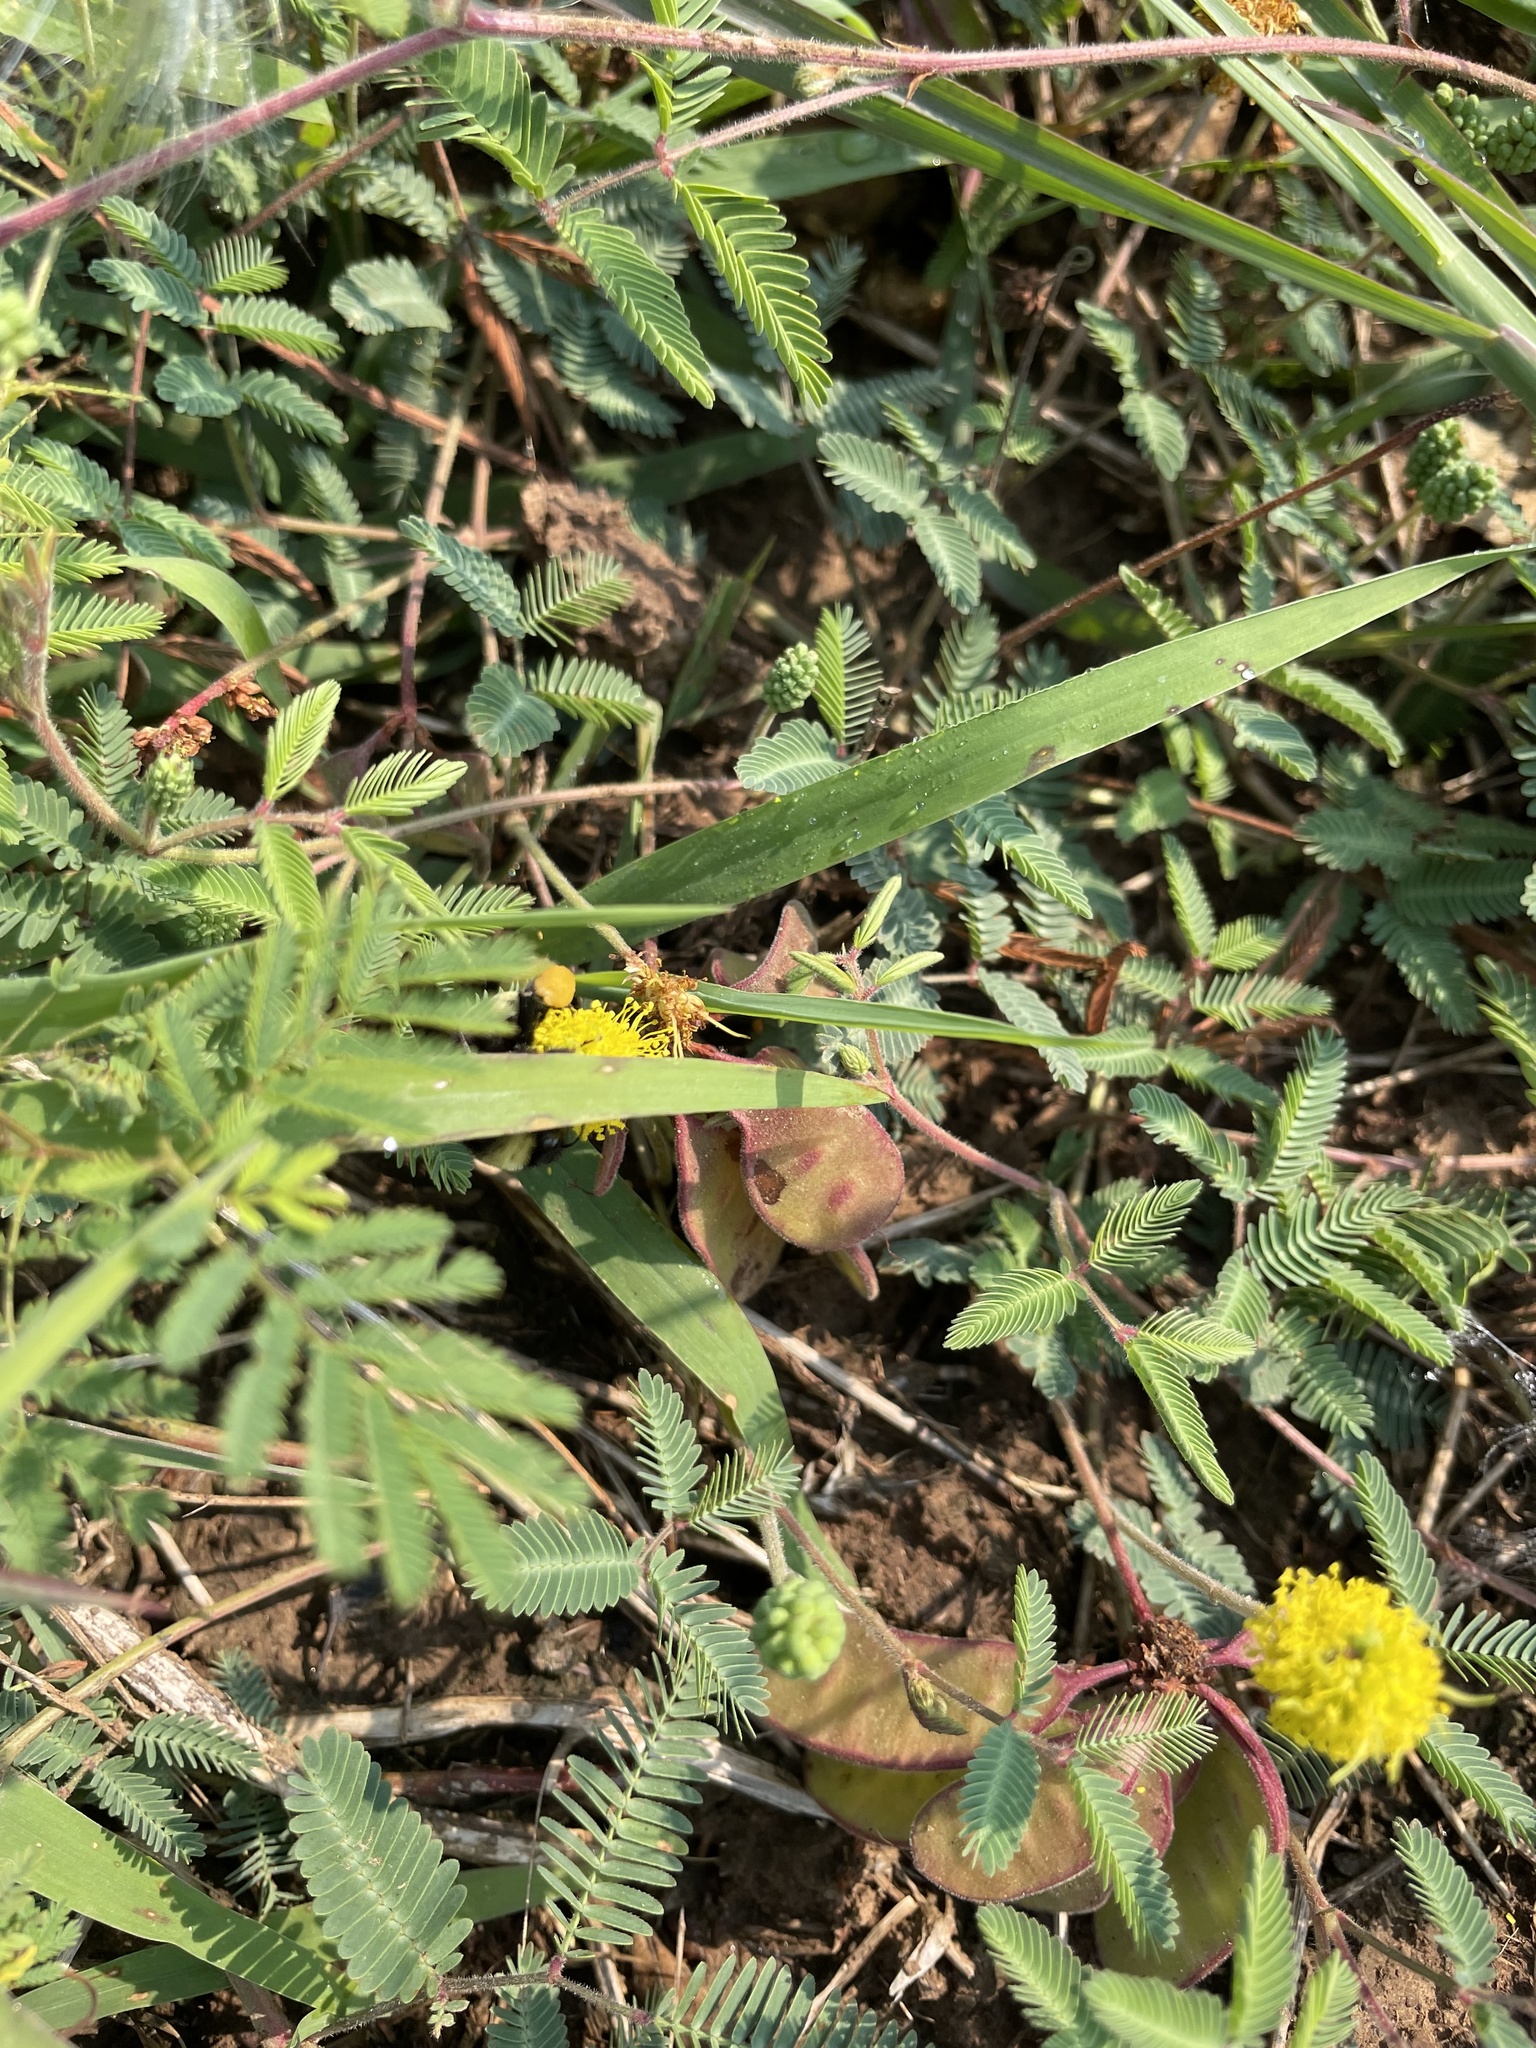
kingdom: Plantae
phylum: Tracheophyta
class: Magnoliopsida
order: Fabales
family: Fabaceae
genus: Neptunia
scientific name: Neptunia lutea
